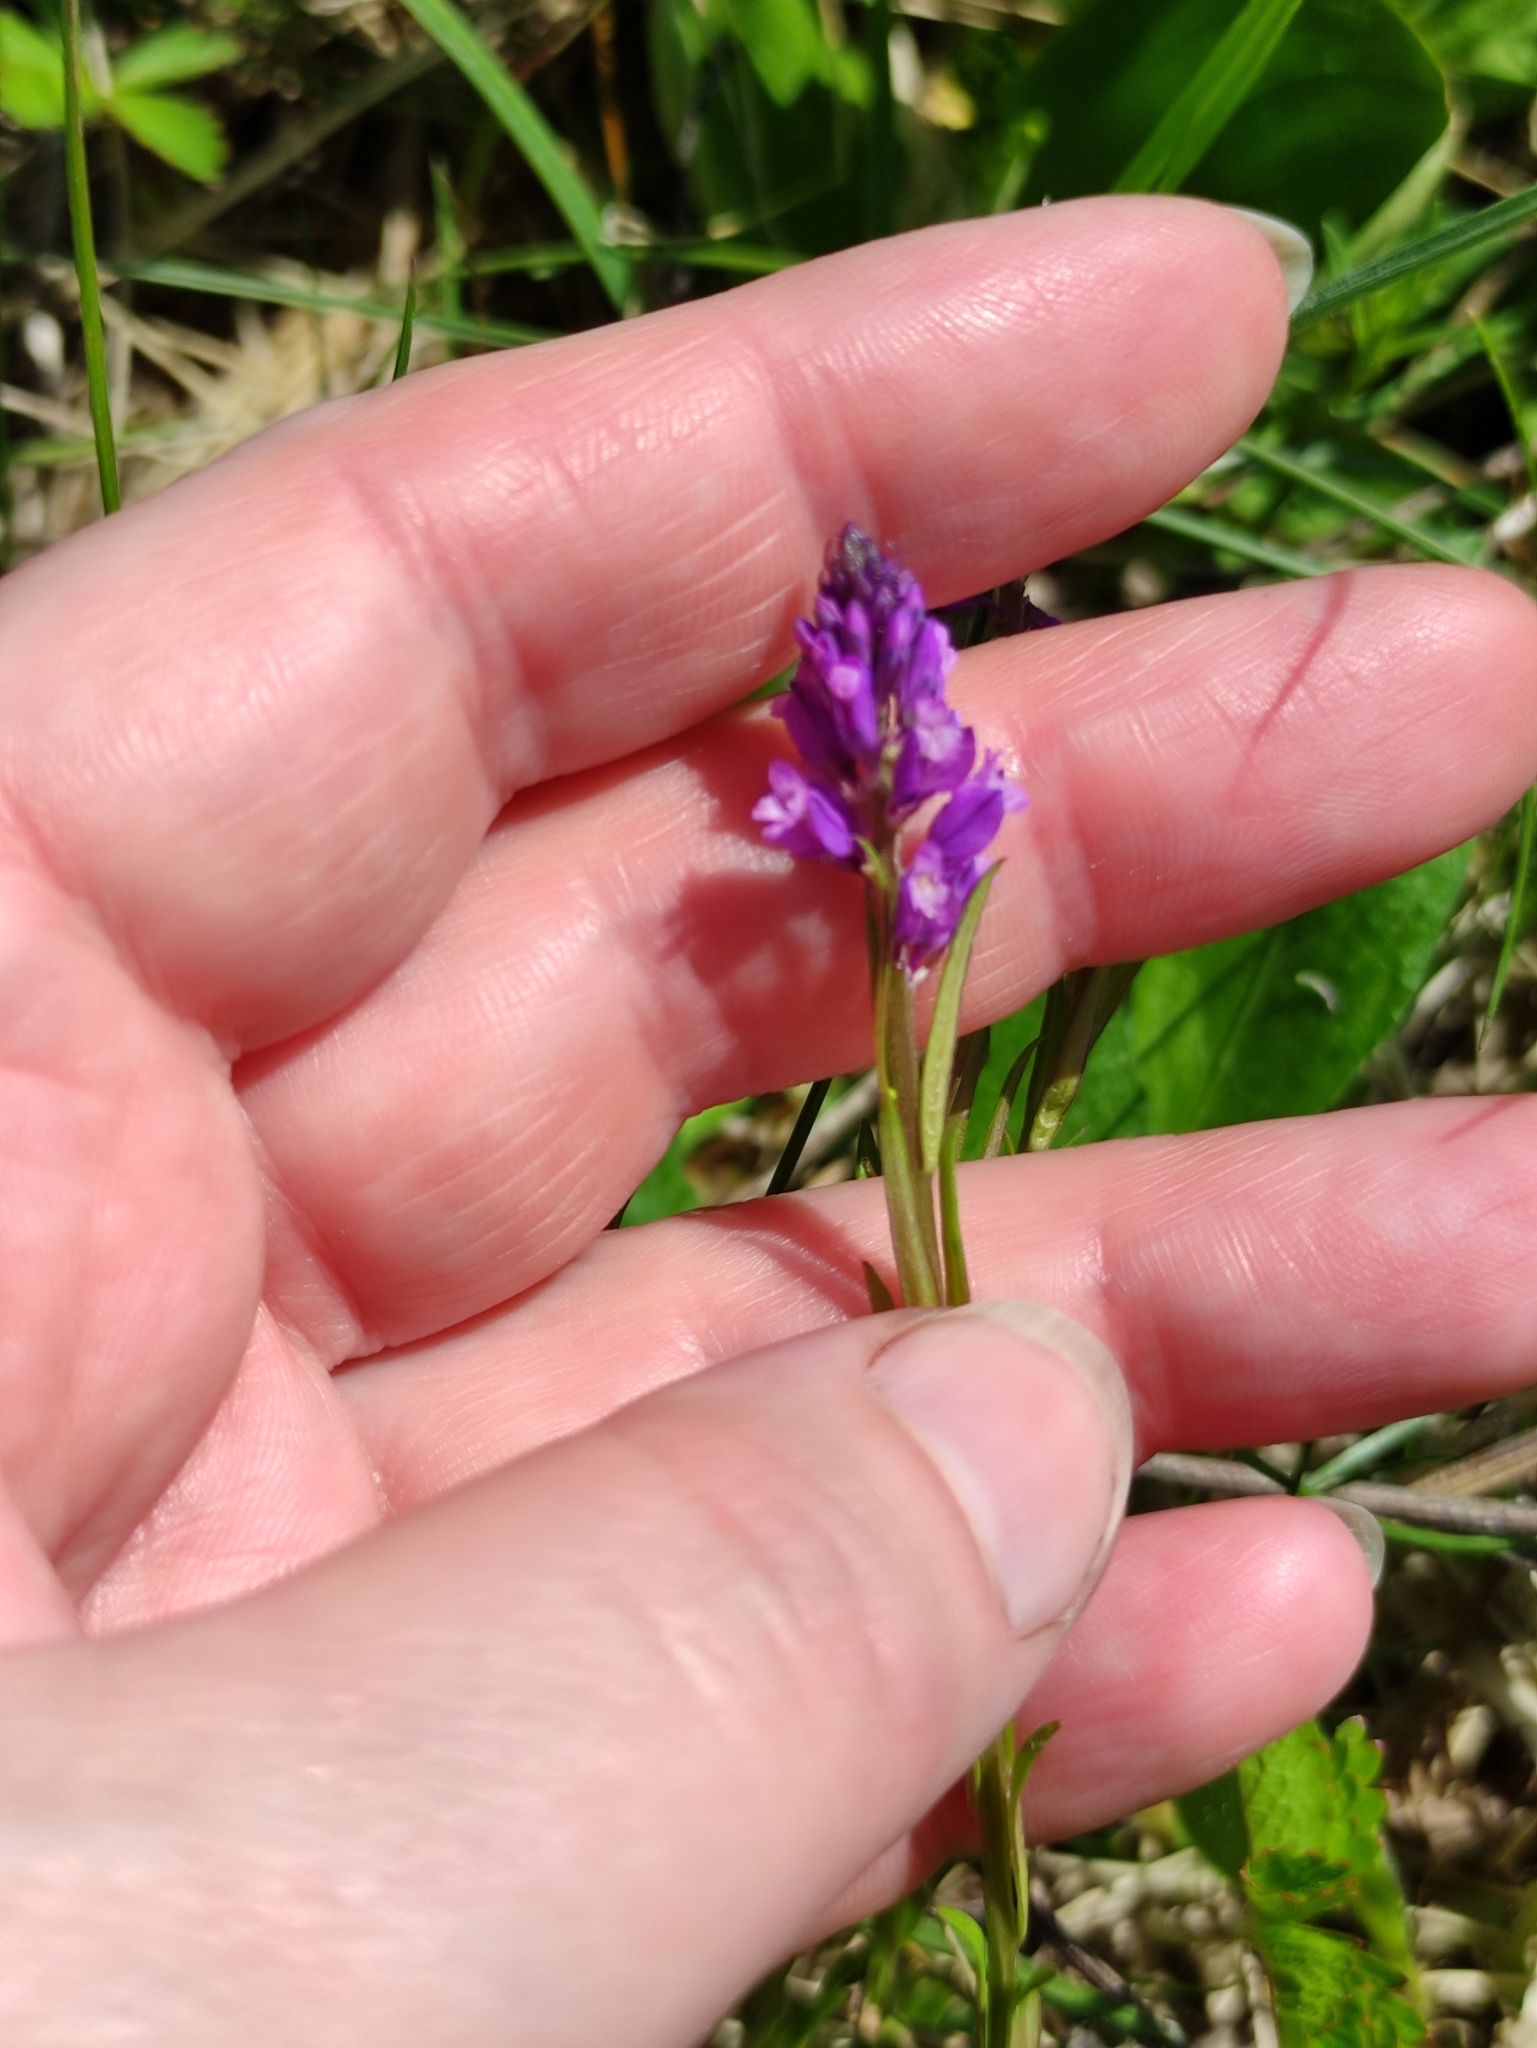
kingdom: Plantae
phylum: Tracheophyta
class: Magnoliopsida
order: Fabales
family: Polygalaceae
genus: Polygala
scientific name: Polygala comosa
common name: Tufted milkwort
